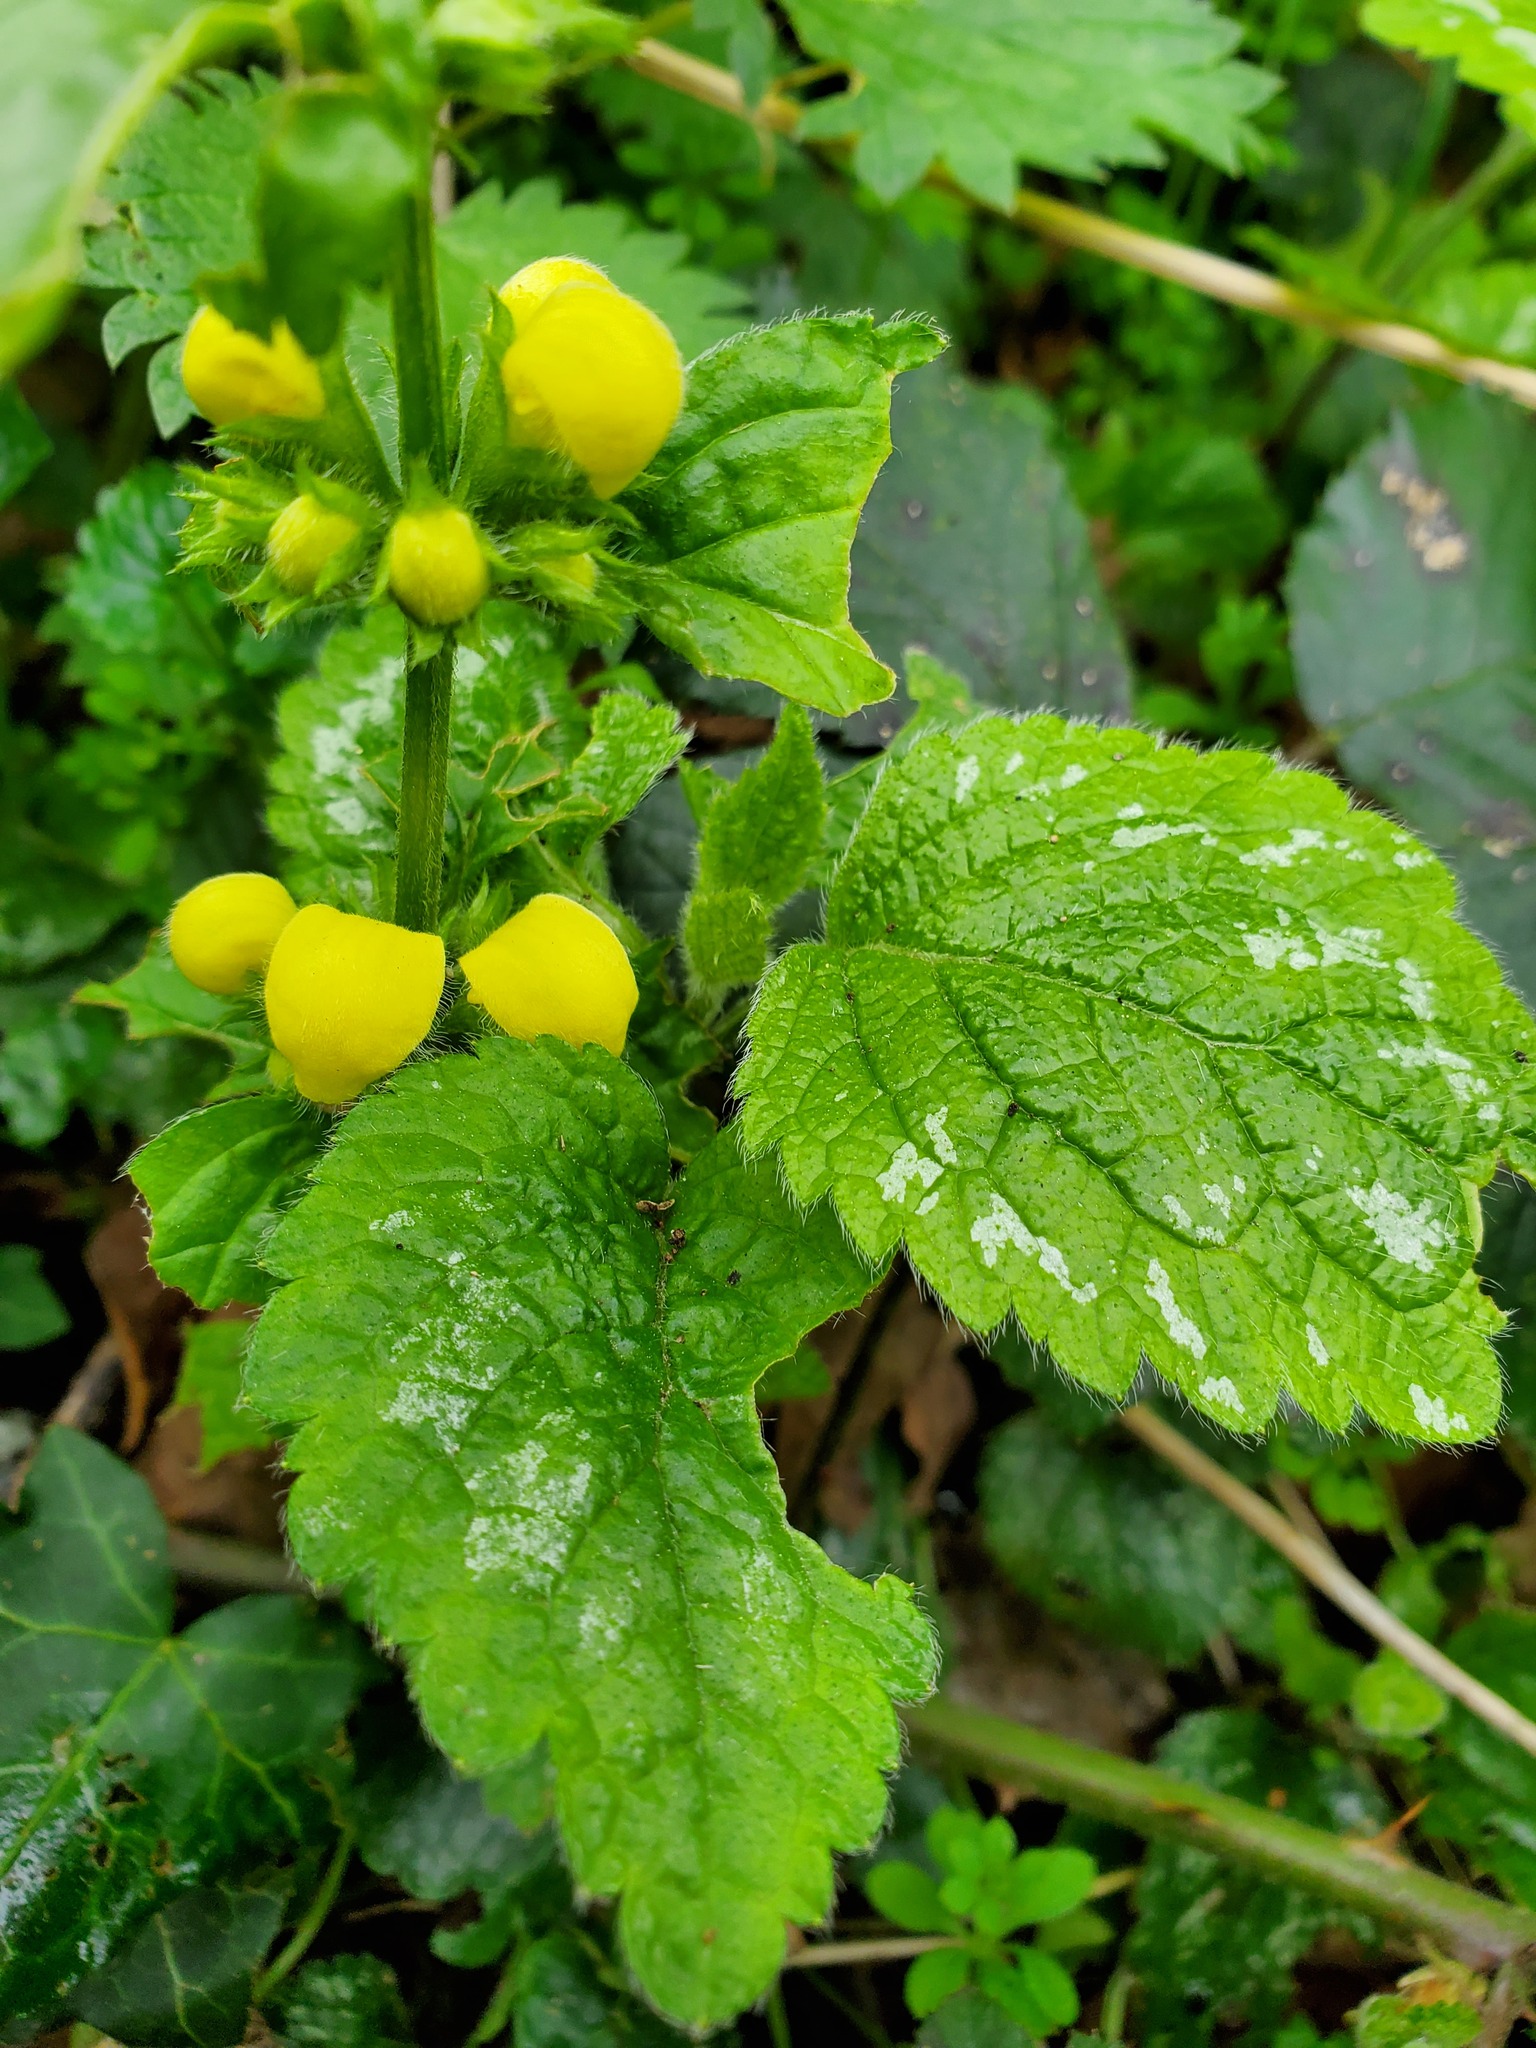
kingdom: Plantae
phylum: Tracheophyta
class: Magnoliopsida
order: Lamiales
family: Lamiaceae
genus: Lamium
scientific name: Lamium galeobdolon
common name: Yellow archangel
